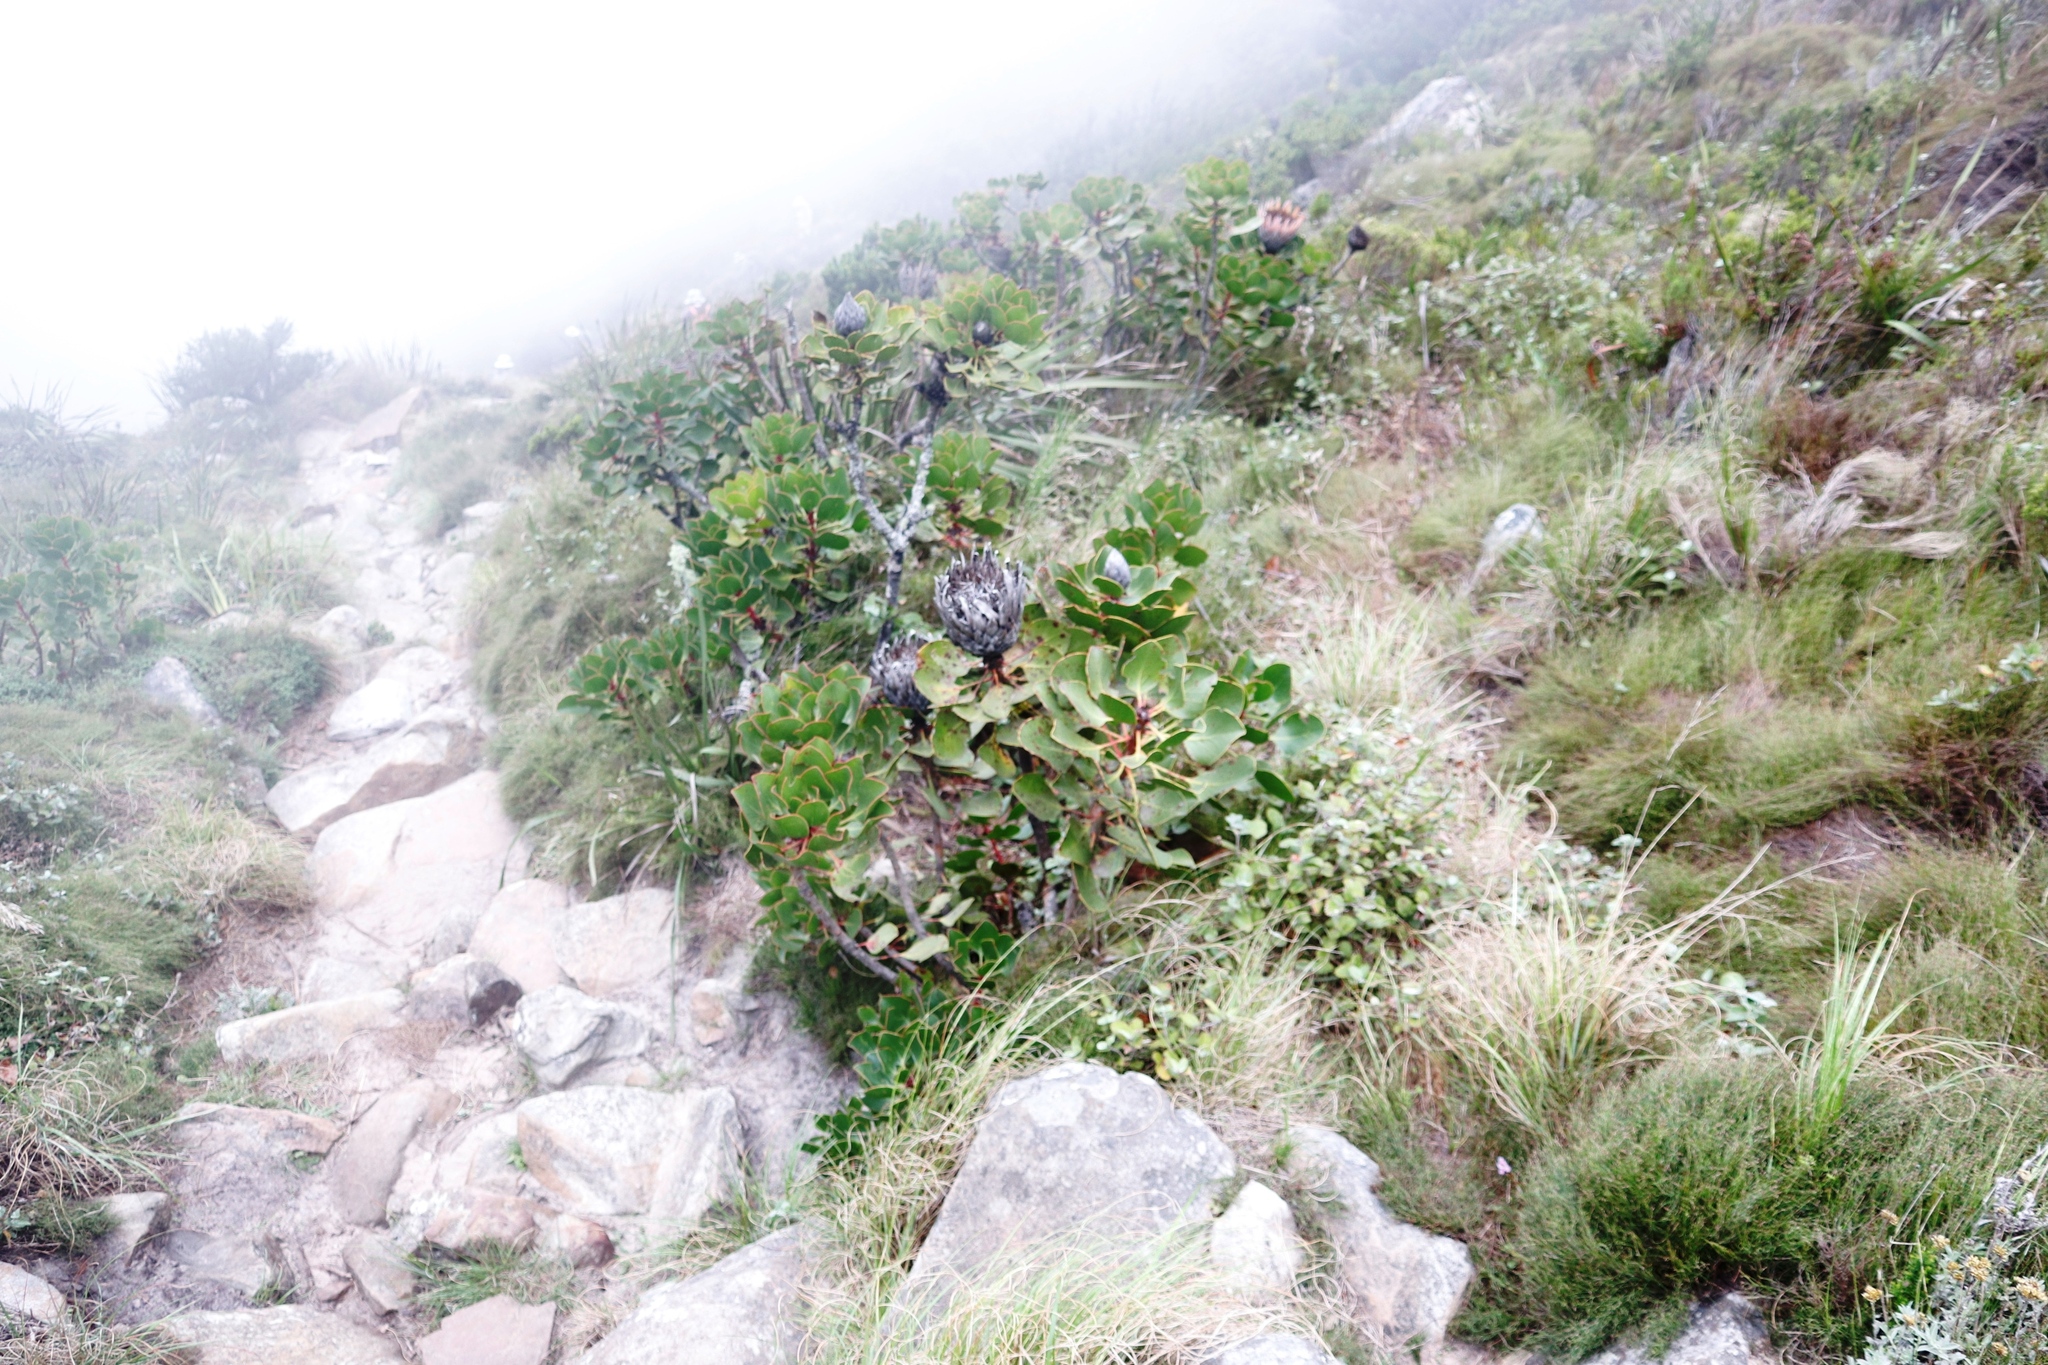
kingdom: Plantae
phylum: Tracheophyta
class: Magnoliopsida
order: Proteales
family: Proteaceae
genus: Protea
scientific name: Protea cynaroides
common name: King protea
